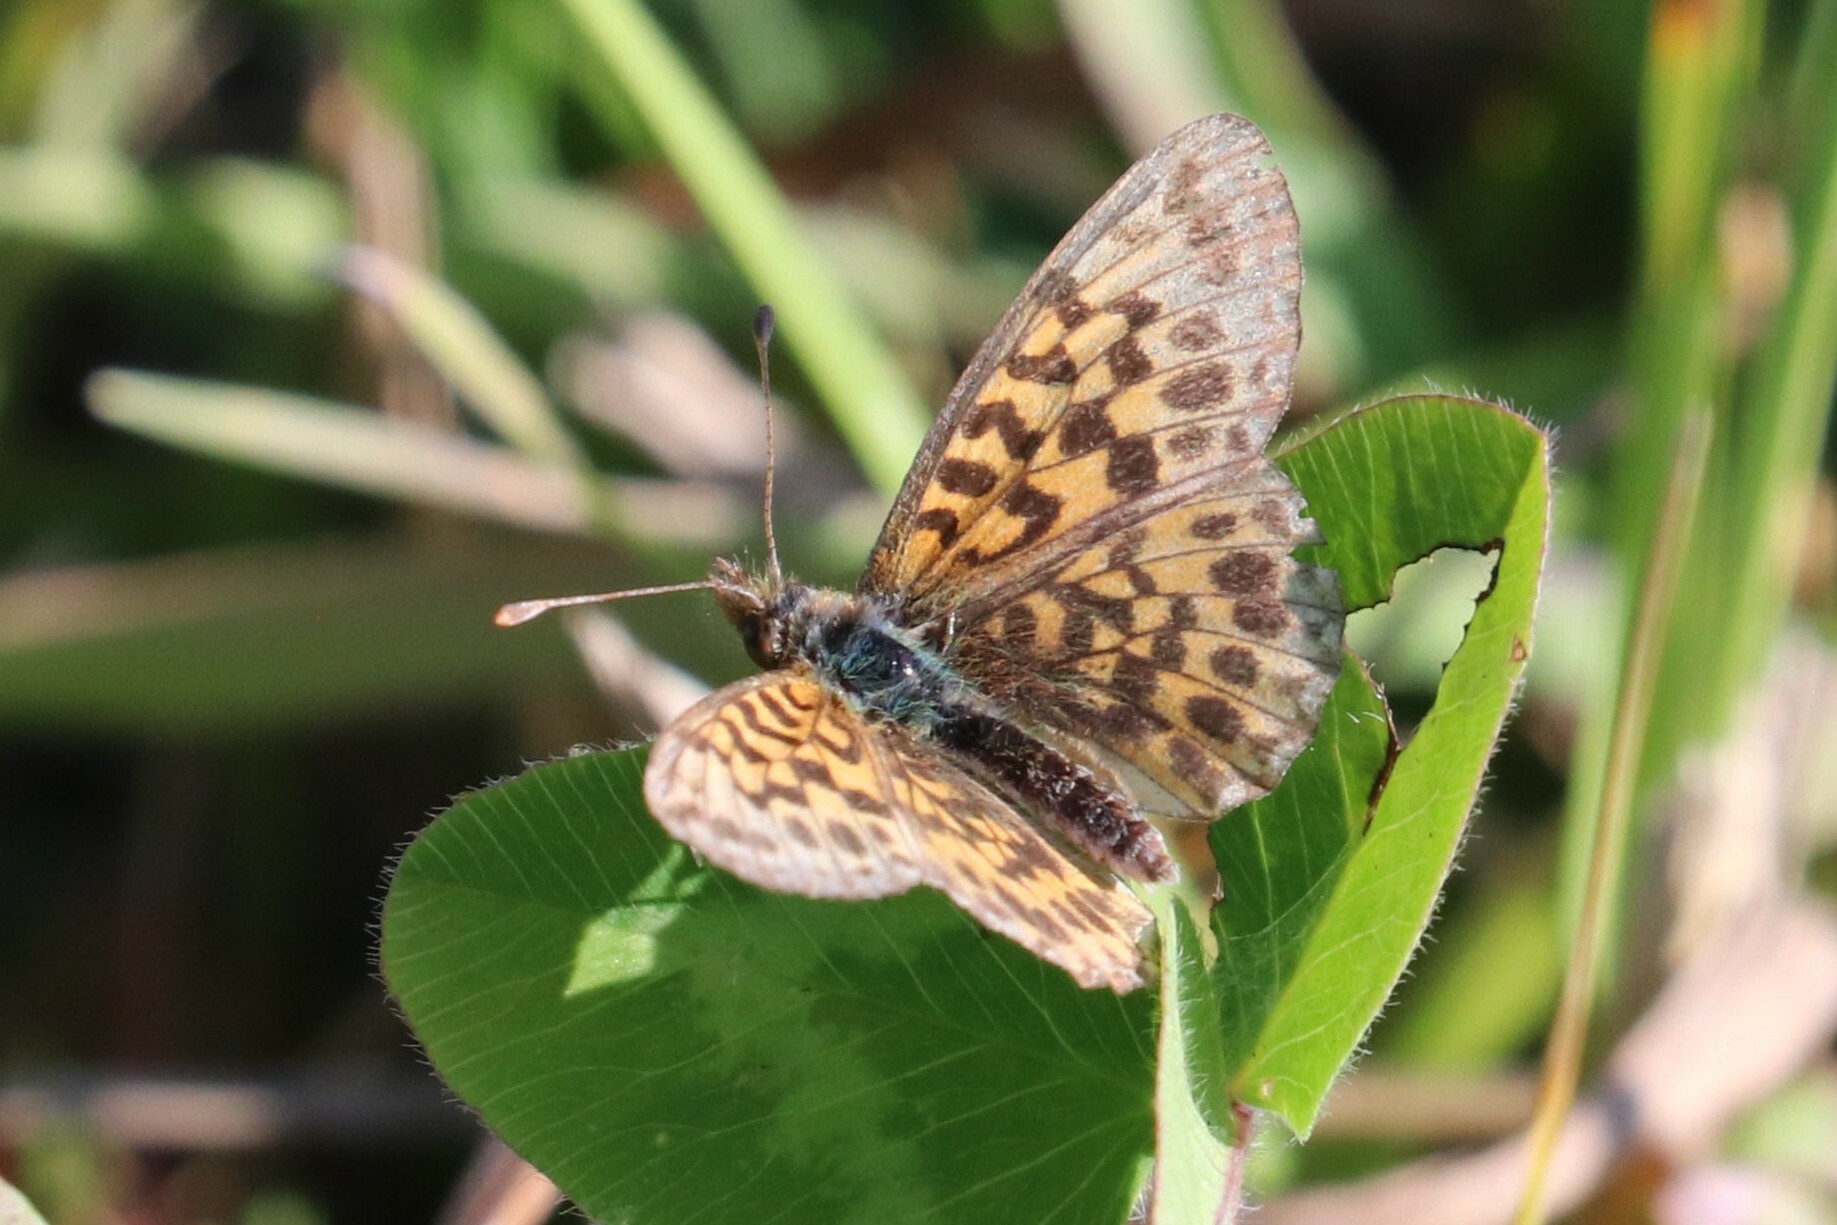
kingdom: Animalia
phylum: Arthropoda
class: Insecta
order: Lepidoptera
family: Nymphalidae
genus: Boloria
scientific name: Boloria dia
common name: Weaver's fritillary
